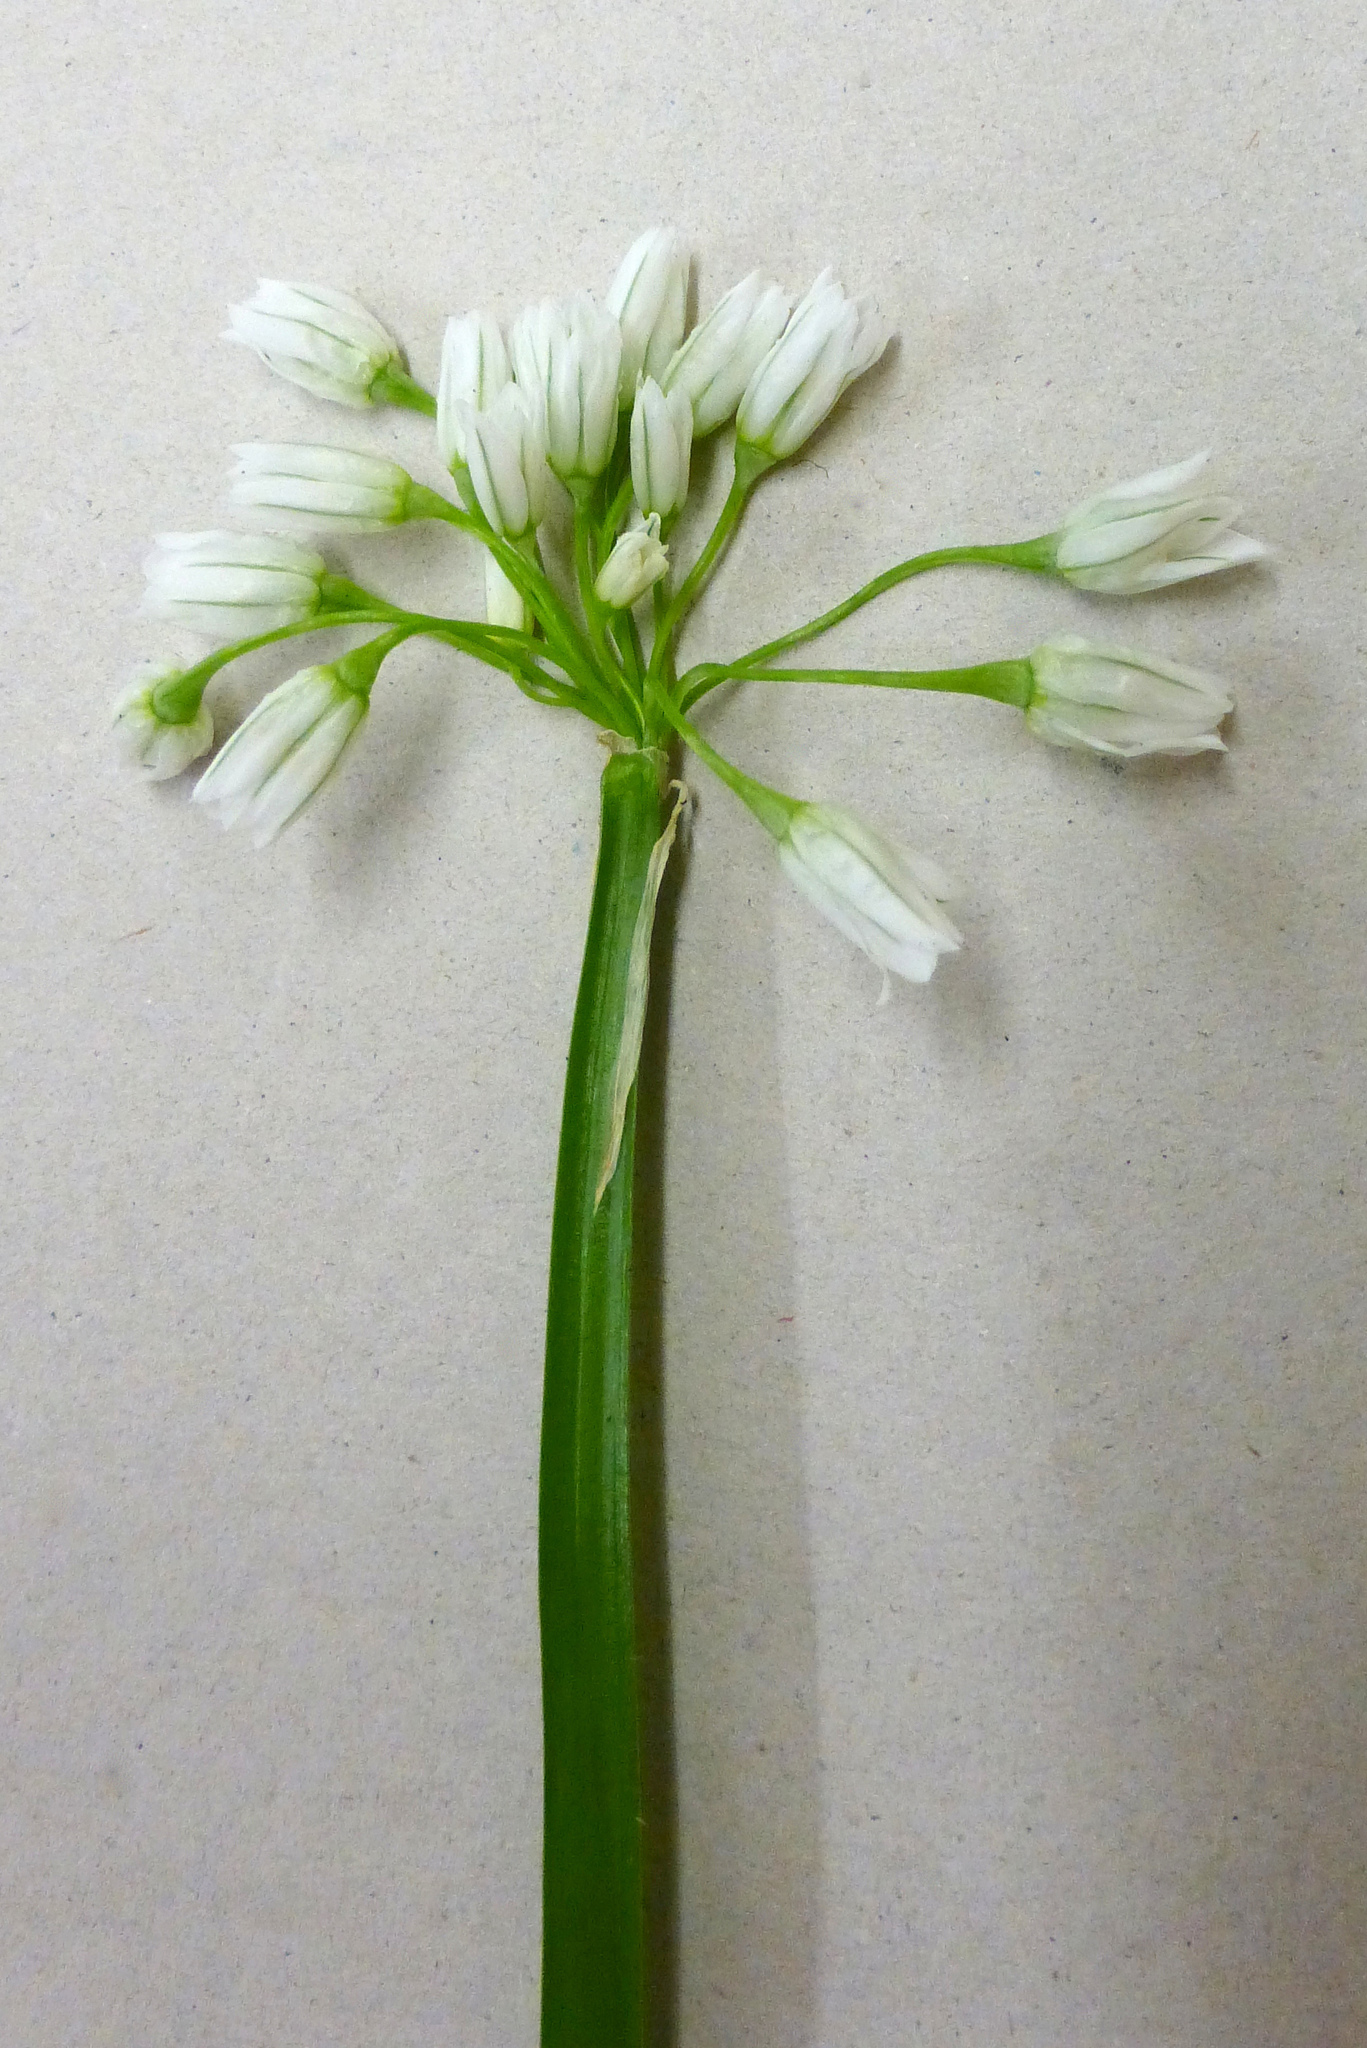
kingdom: Plantae
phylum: Tracheophyta
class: Liliopsida
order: Asparagales
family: Amaryllidaceae
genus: Allium
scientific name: Allium triquetrum
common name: Three-cornered garlic
